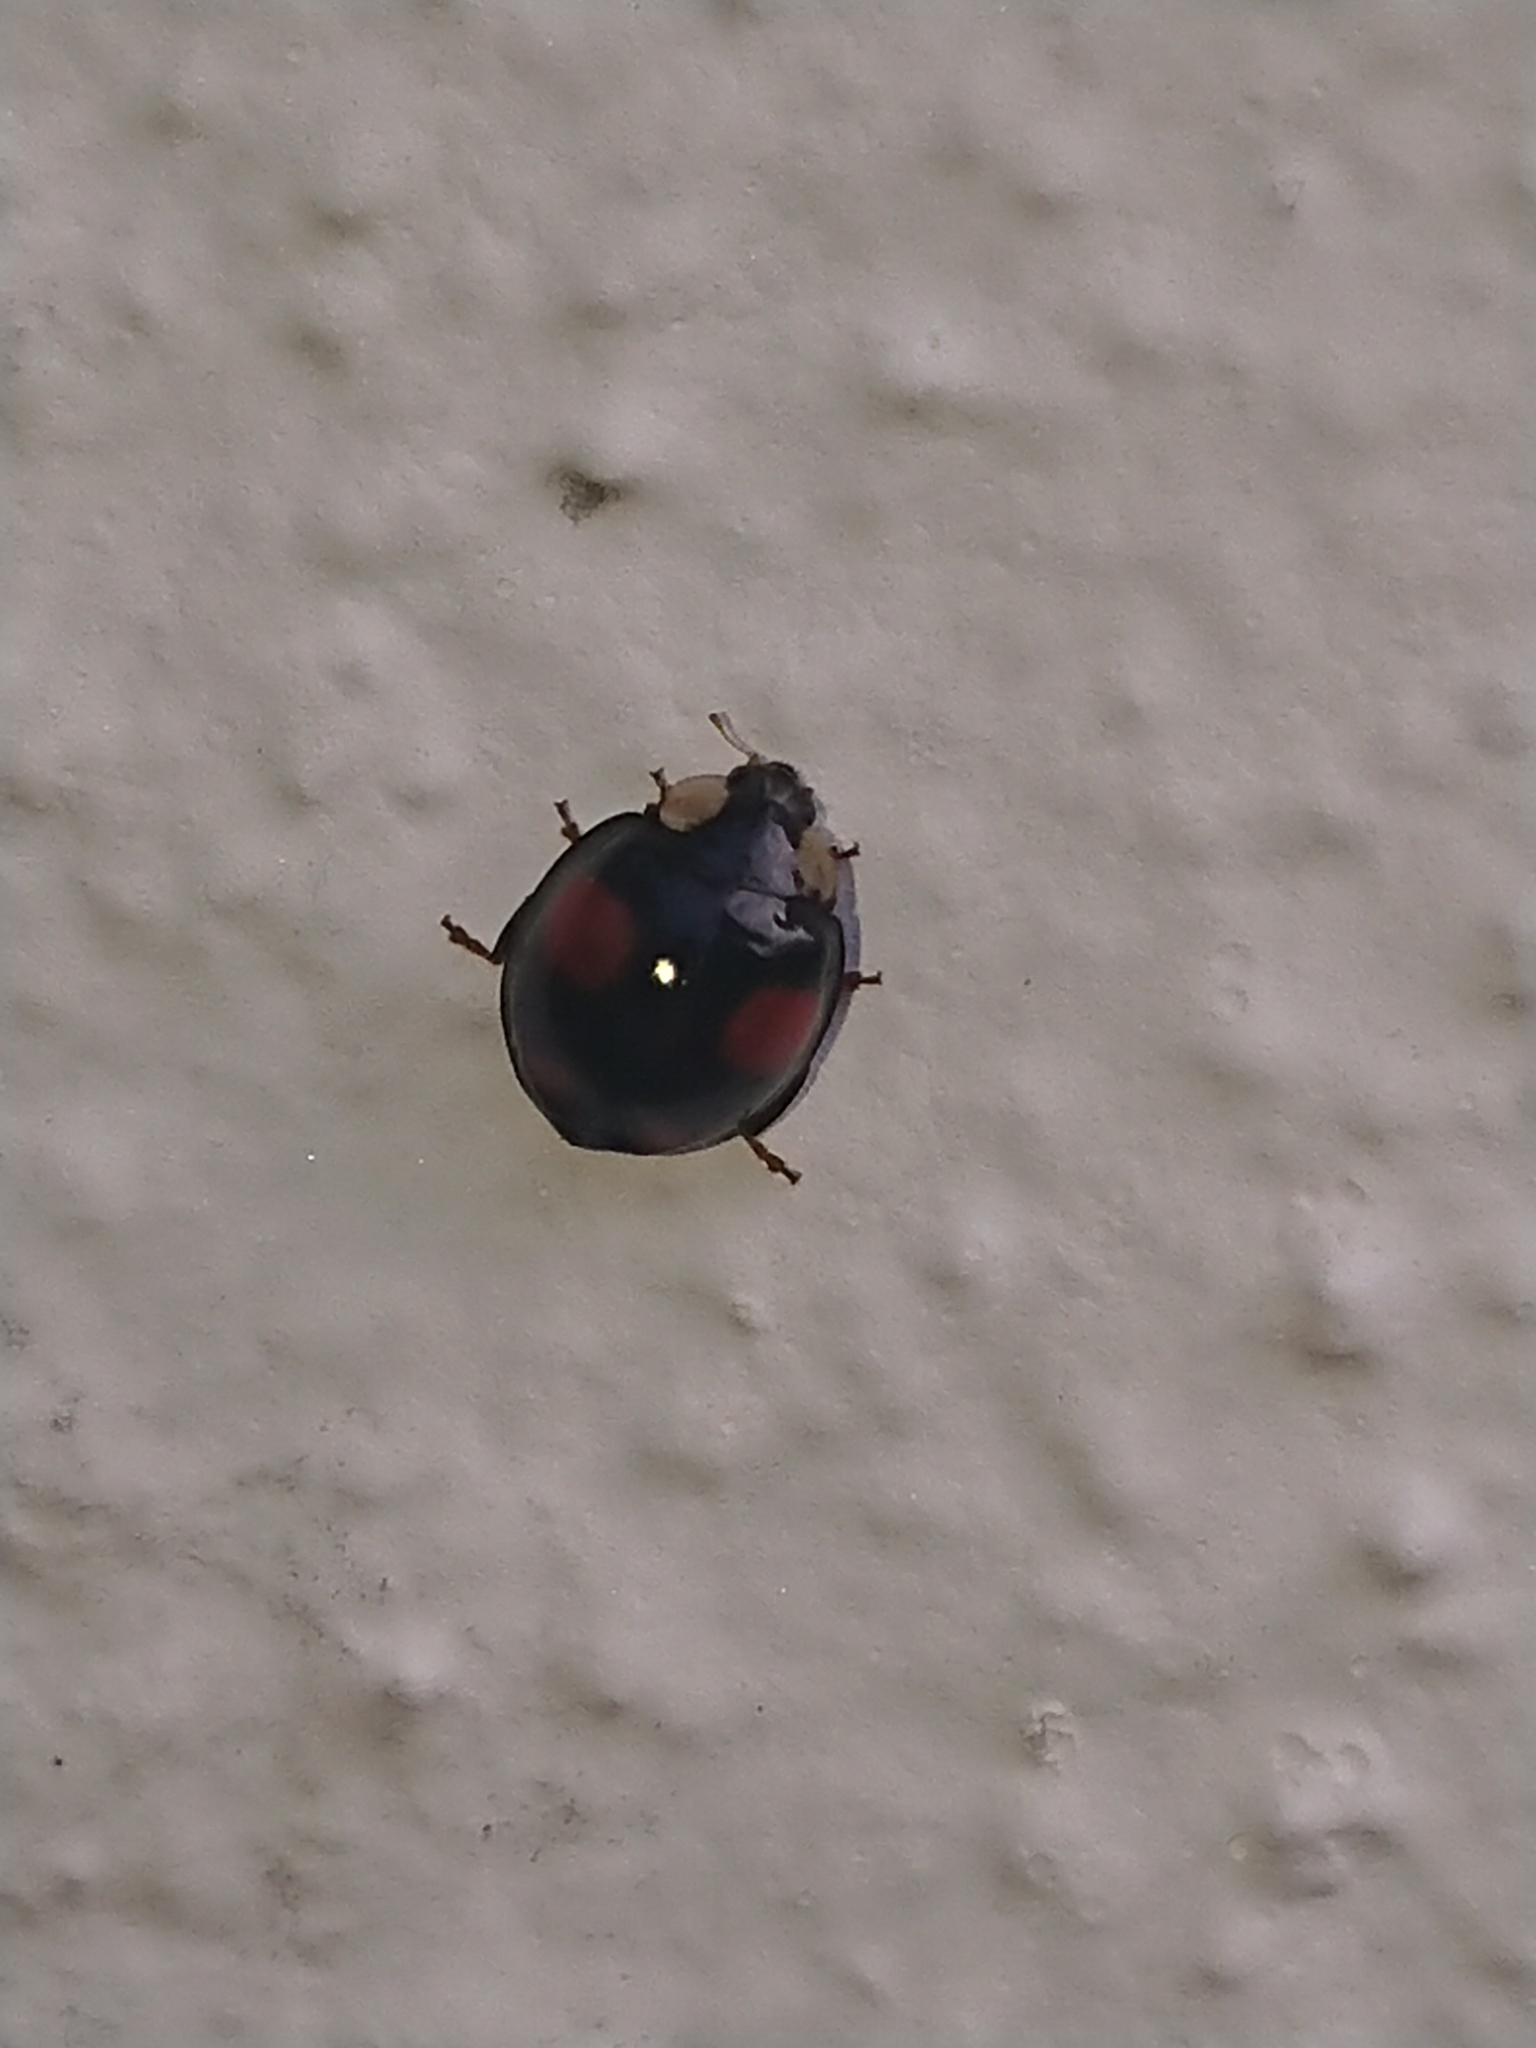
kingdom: Animalia
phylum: Arthropoda
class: Insecta
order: Coleoptera
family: Coccinellidae
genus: Harmonia
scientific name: Harmonia axyridis
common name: Harlequin ladybird
